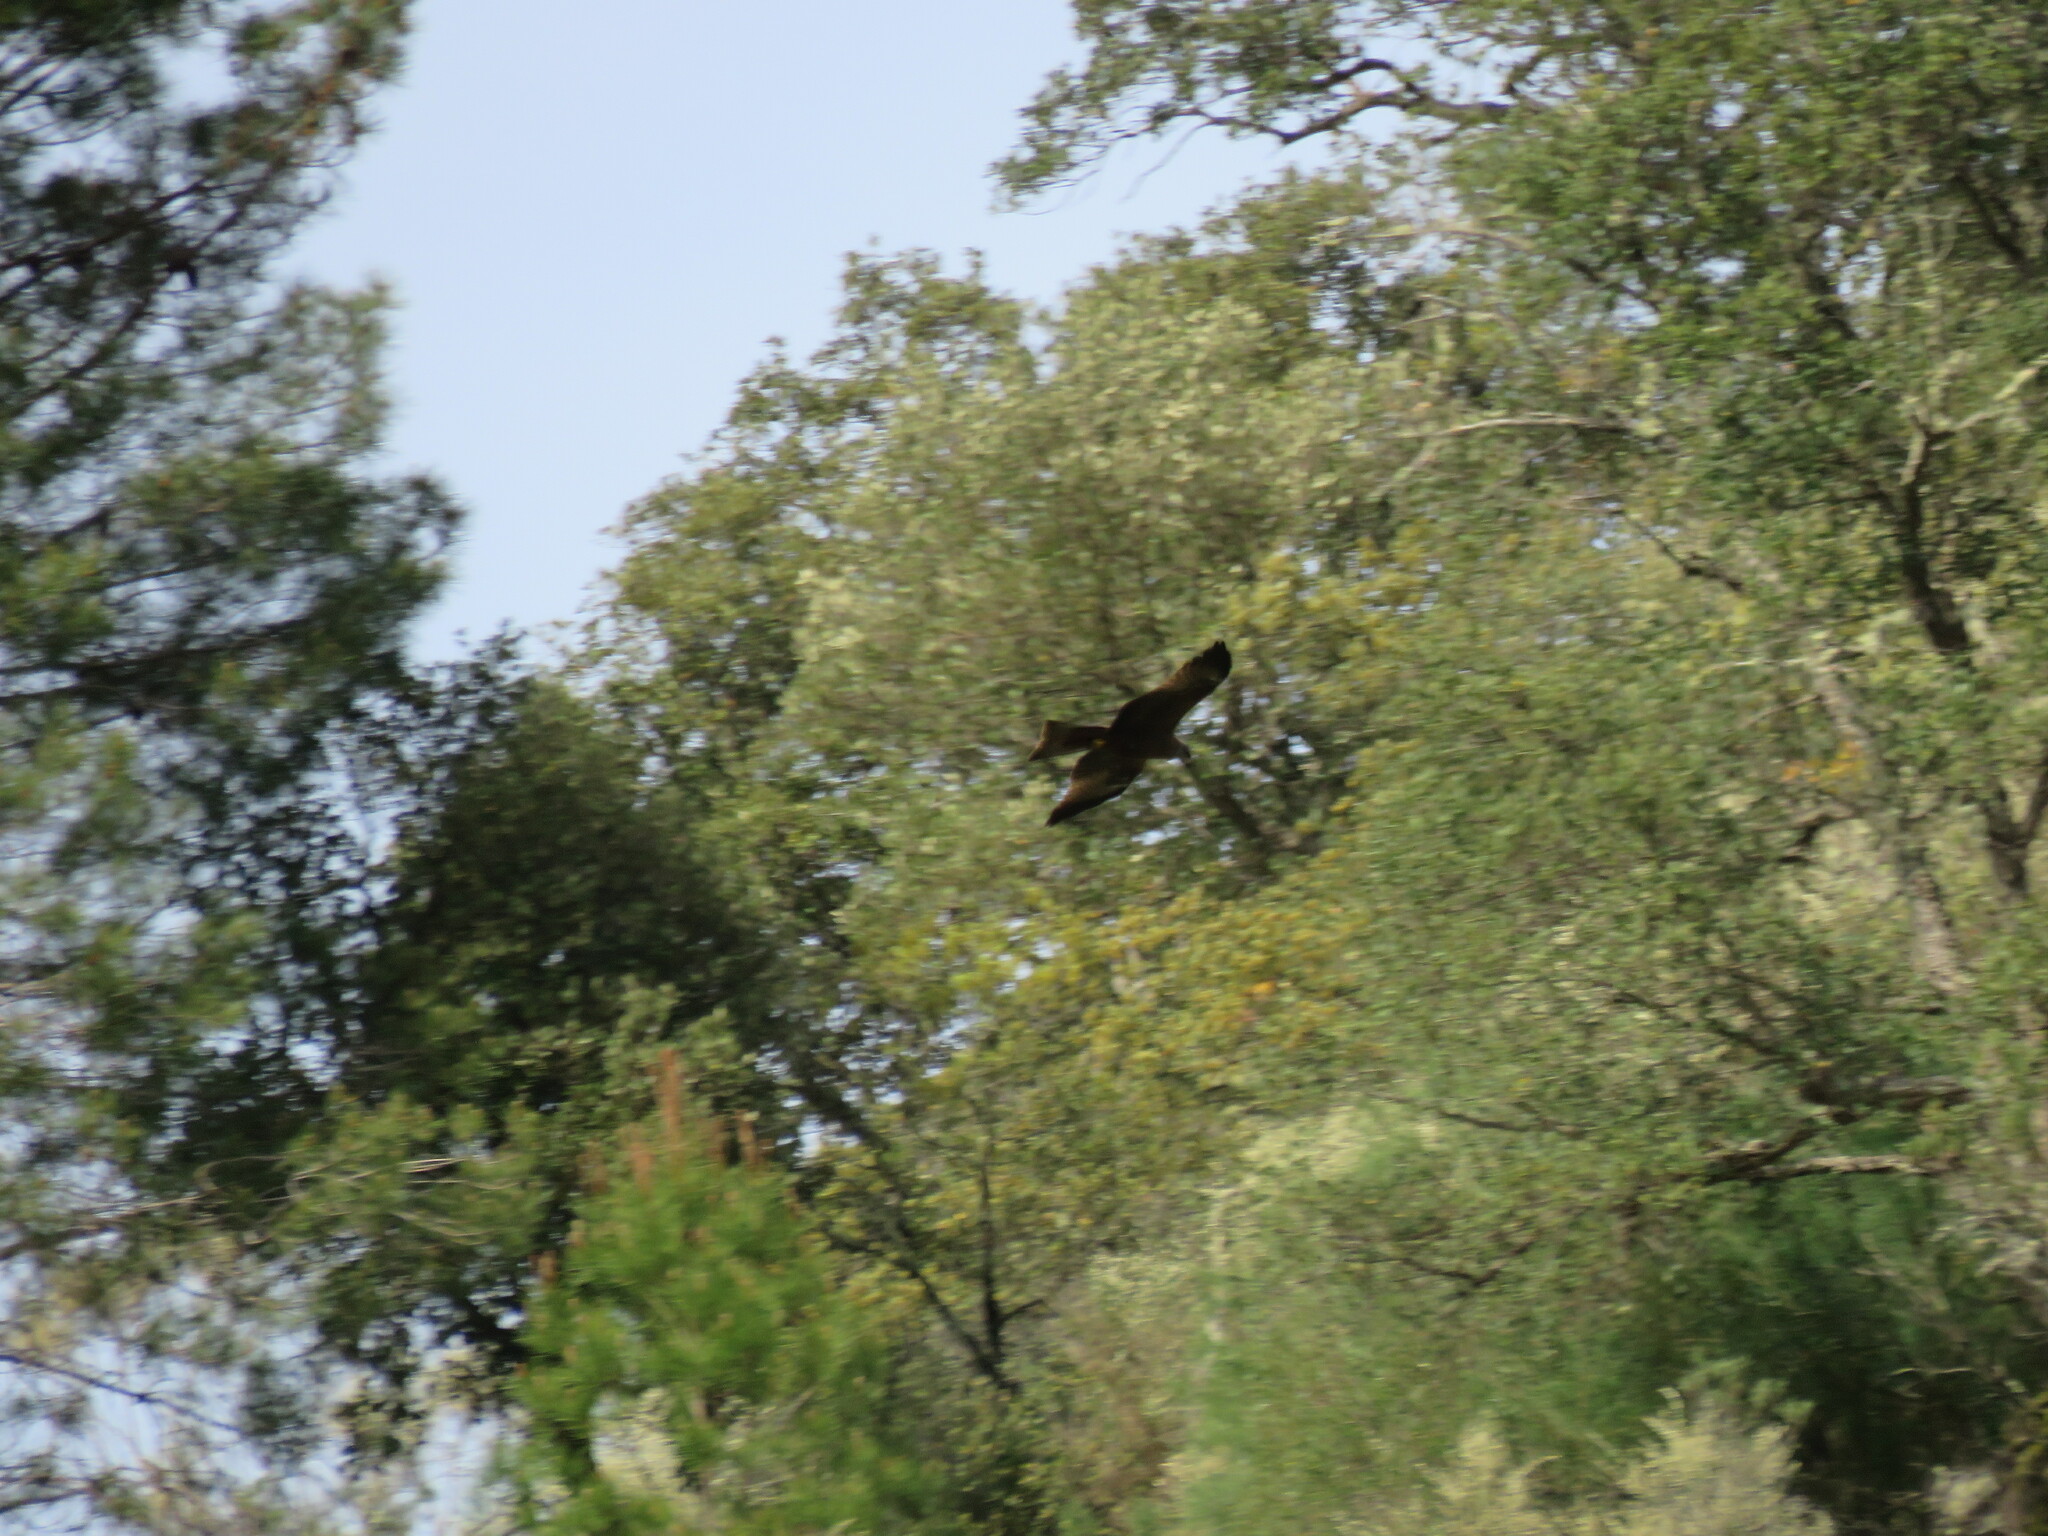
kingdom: Animalia
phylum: Chordata
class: Aves
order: Accipitriformes
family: Accipitridae
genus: Milvus
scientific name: Milvus migrans
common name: Black kite
